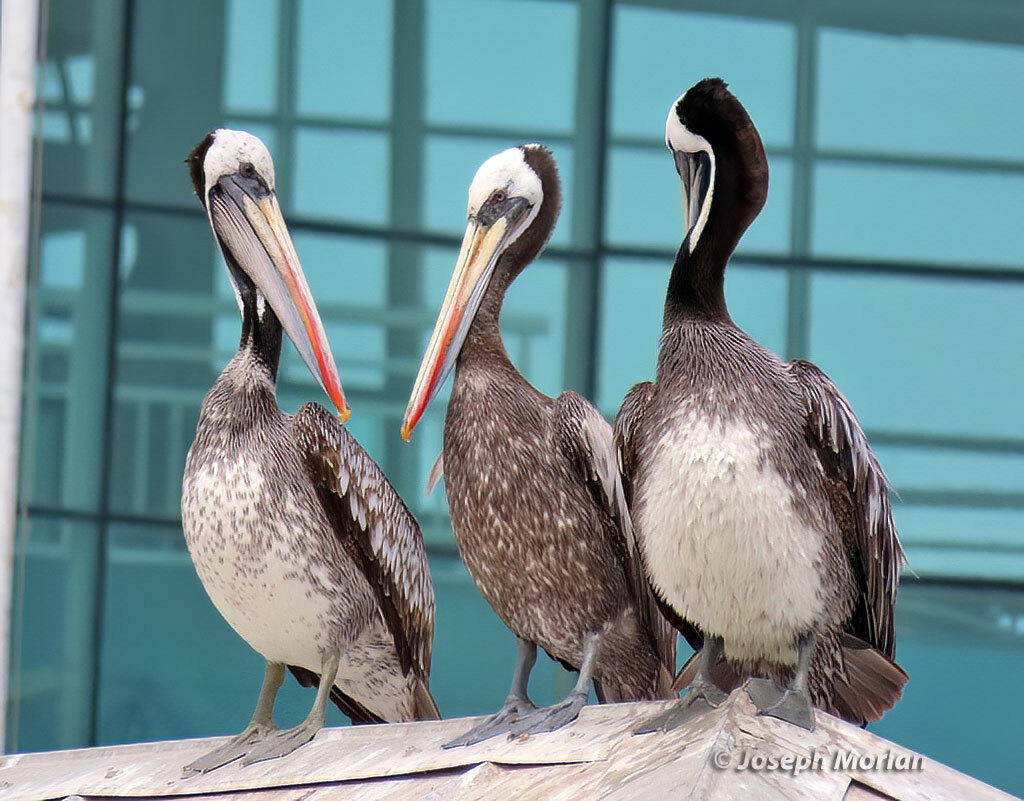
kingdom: Animalia
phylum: Chordata
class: Aves
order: Pelecaniformes
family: Pelecanidae
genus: Pelecanus
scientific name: Pelecanus thagus
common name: Peruvian pelican
